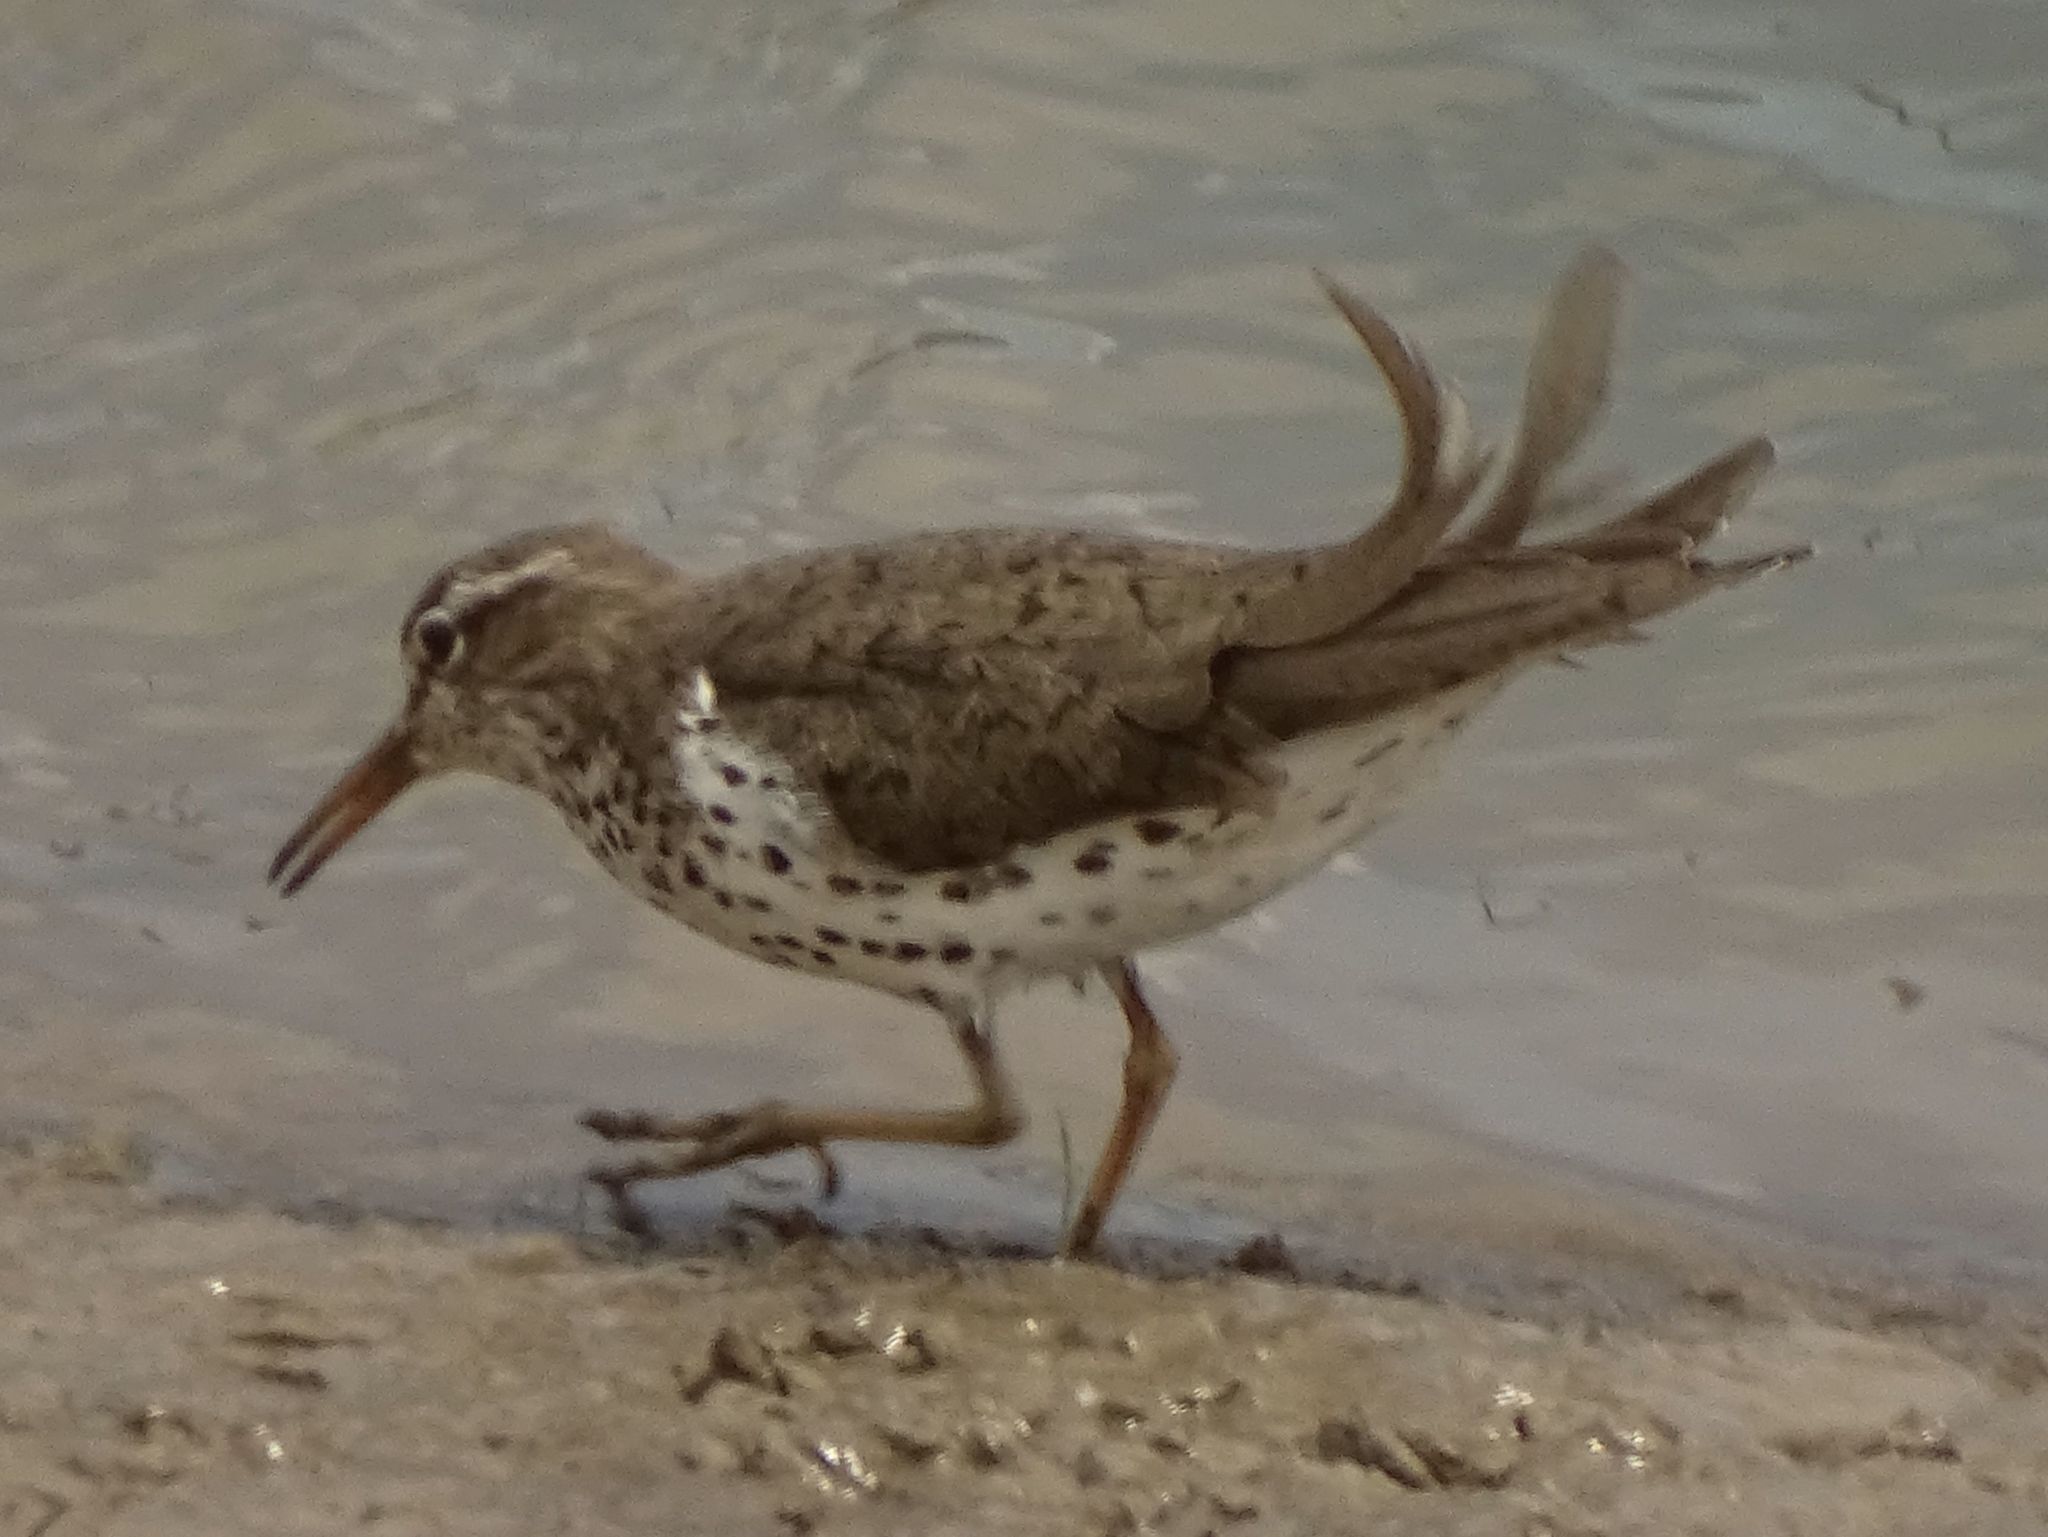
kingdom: Animalia
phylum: Chordata
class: Aves
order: Charadriiformes
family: Scolopacidae
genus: Actitis
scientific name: Actitis macularius
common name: Spotted sandpiper
